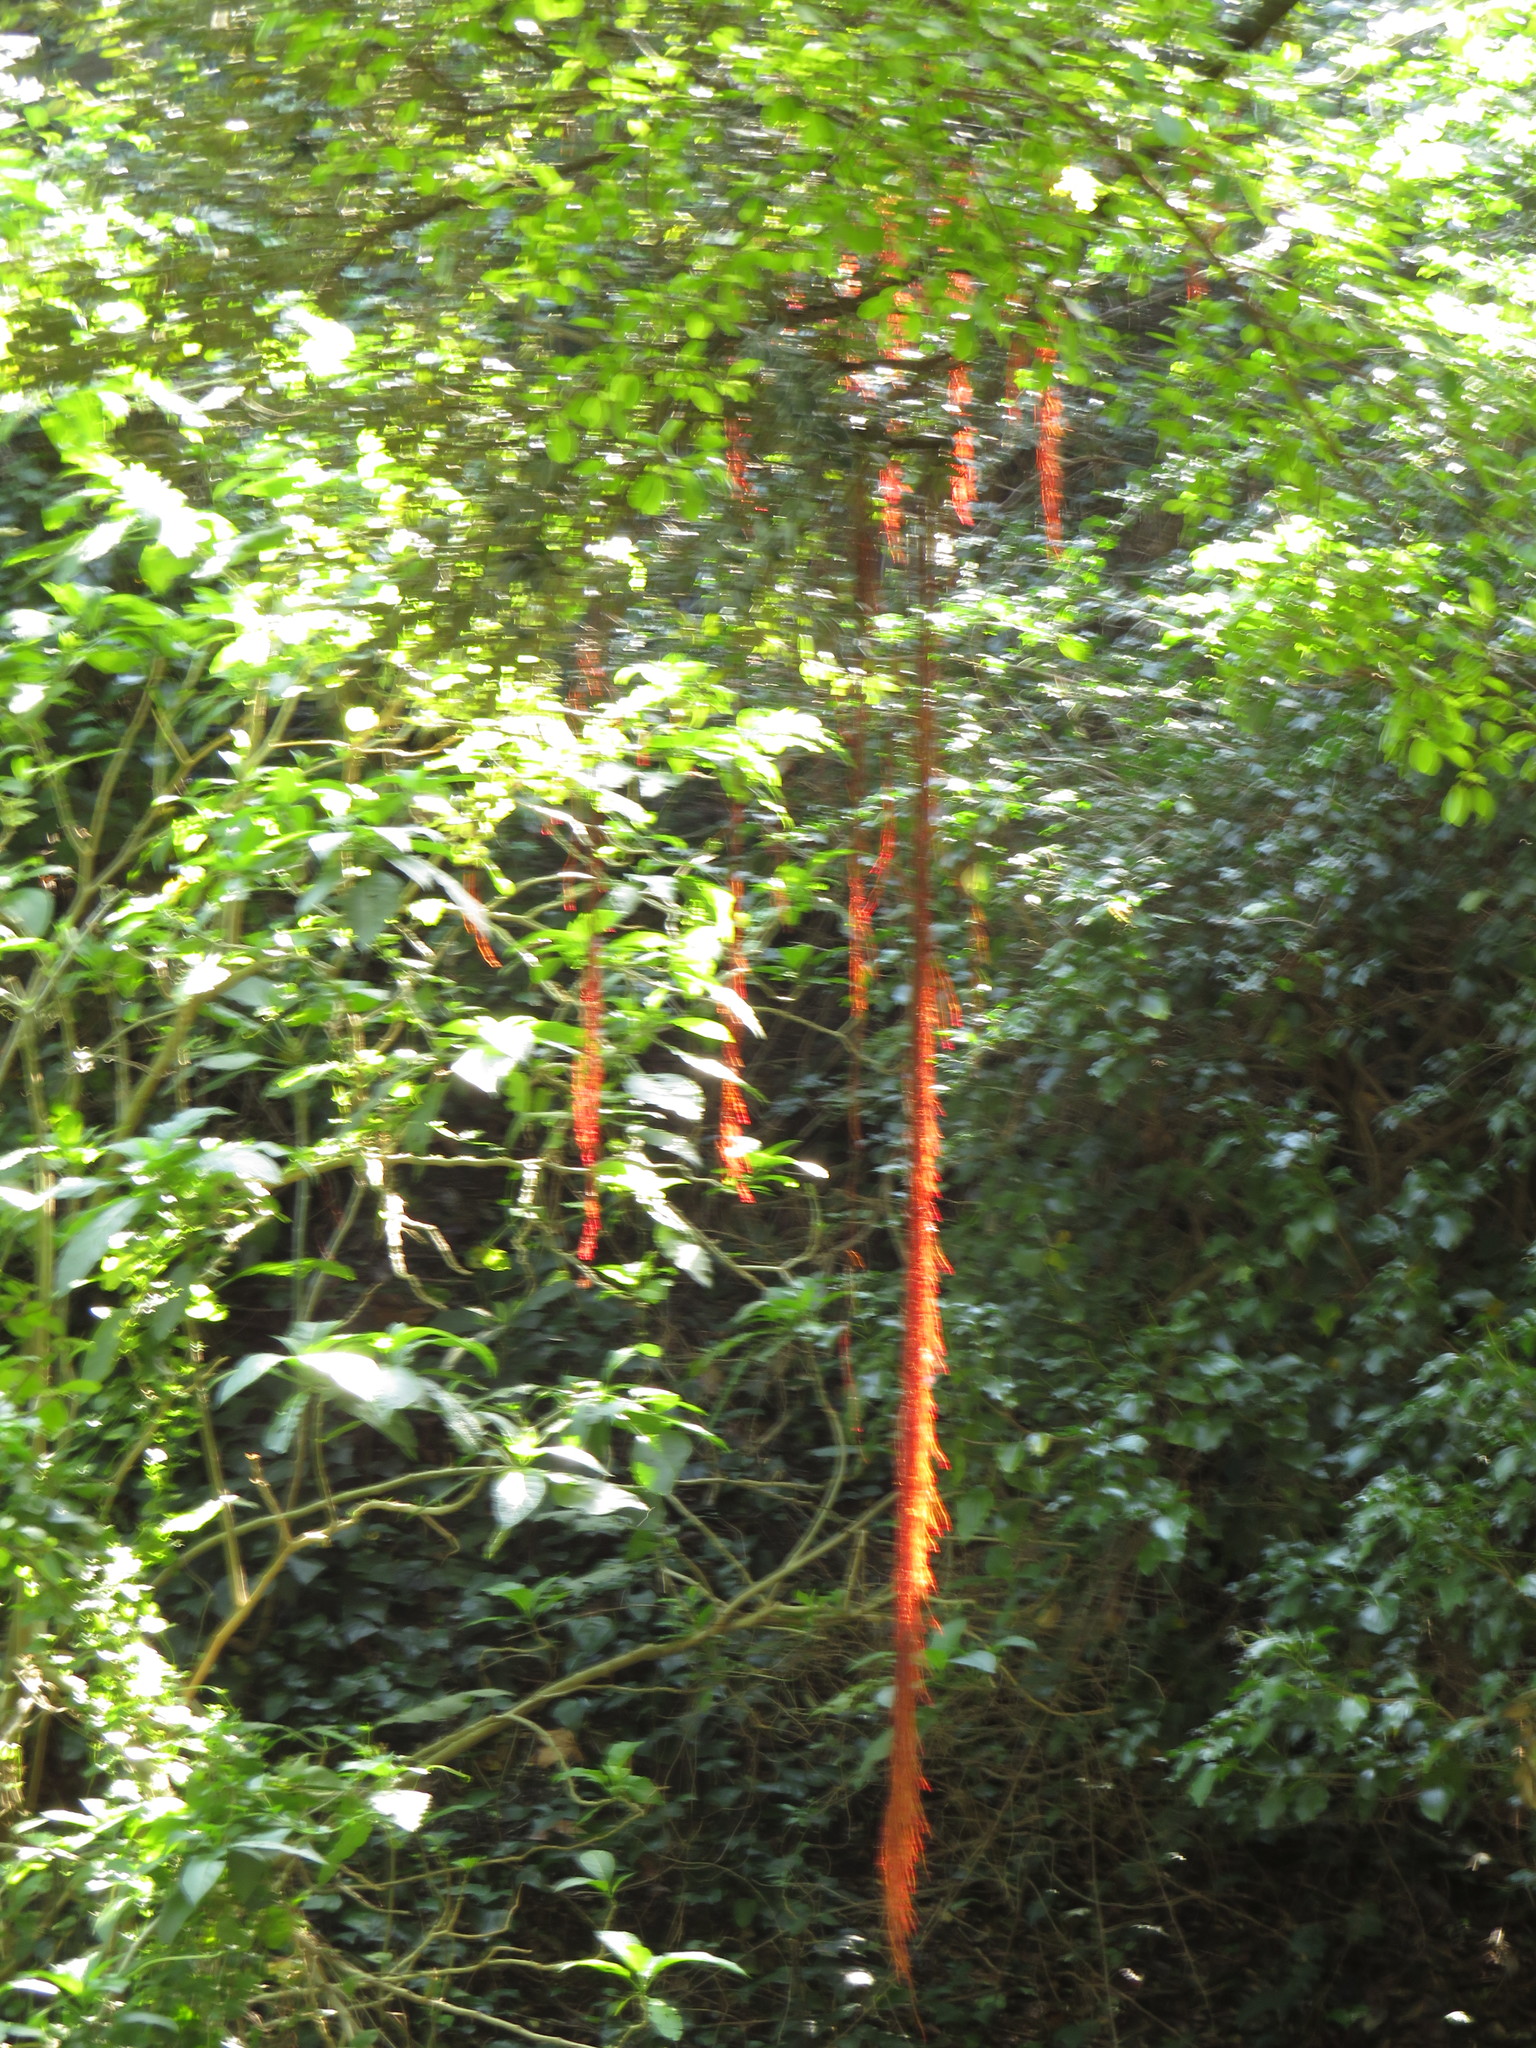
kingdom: Plantae
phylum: Tracheophyta
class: Magnoliopsida
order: Rosales
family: Moraceae
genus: Ficus
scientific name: Ficus thonningii
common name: Fig
